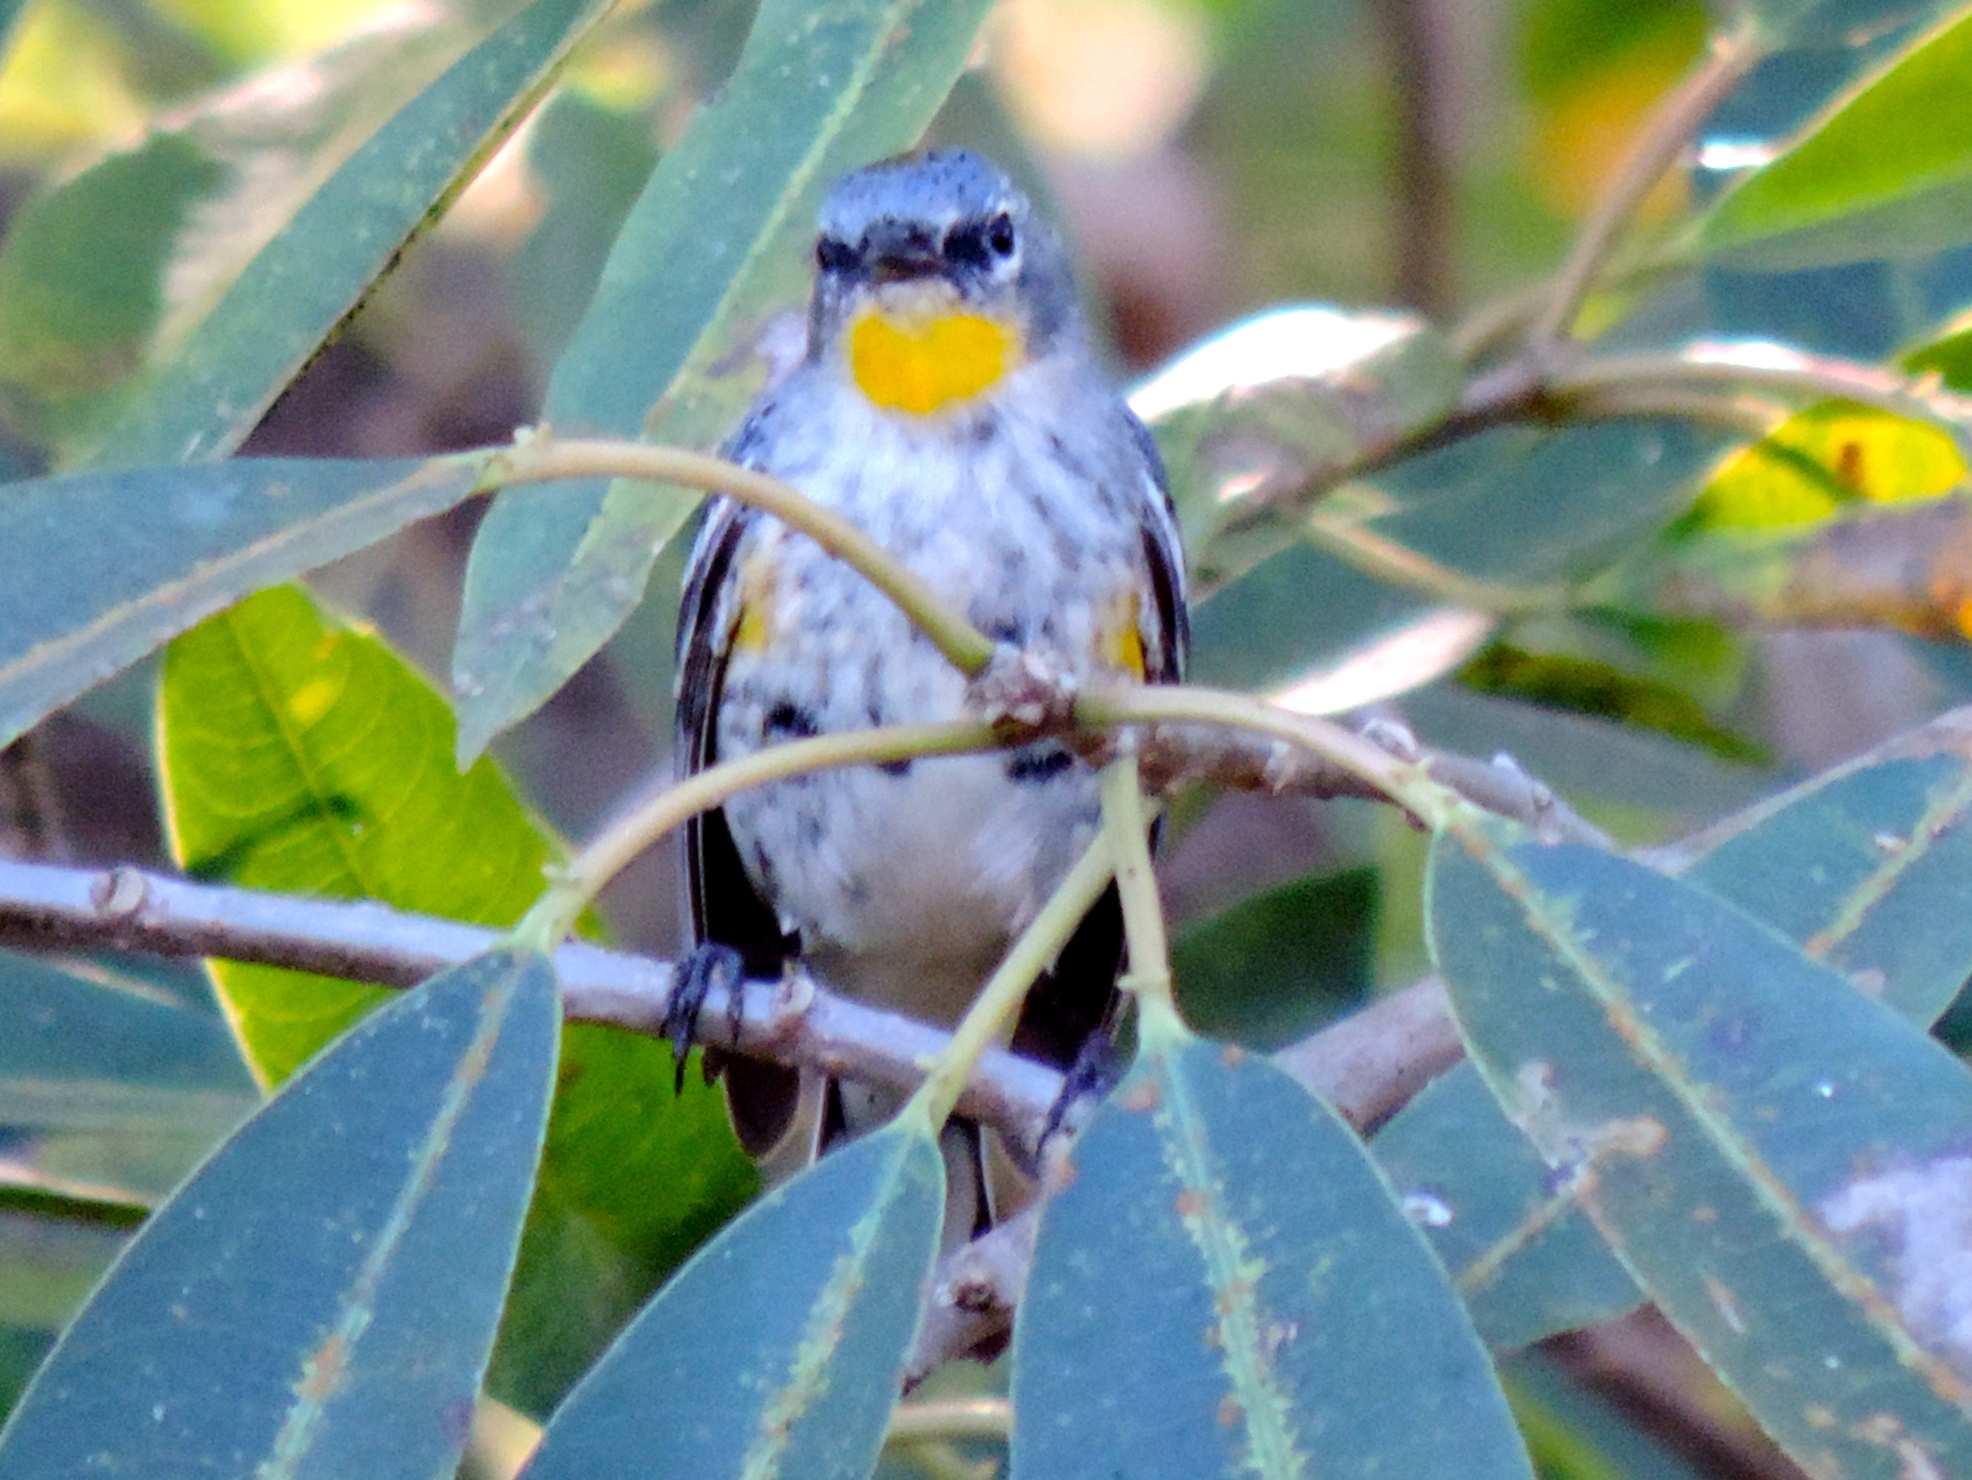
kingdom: Animalia
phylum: Chordata
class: Aves
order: Passeriformes
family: Parulidae
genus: Setophaga
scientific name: Setophaga coronata
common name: Myrtle warbler
